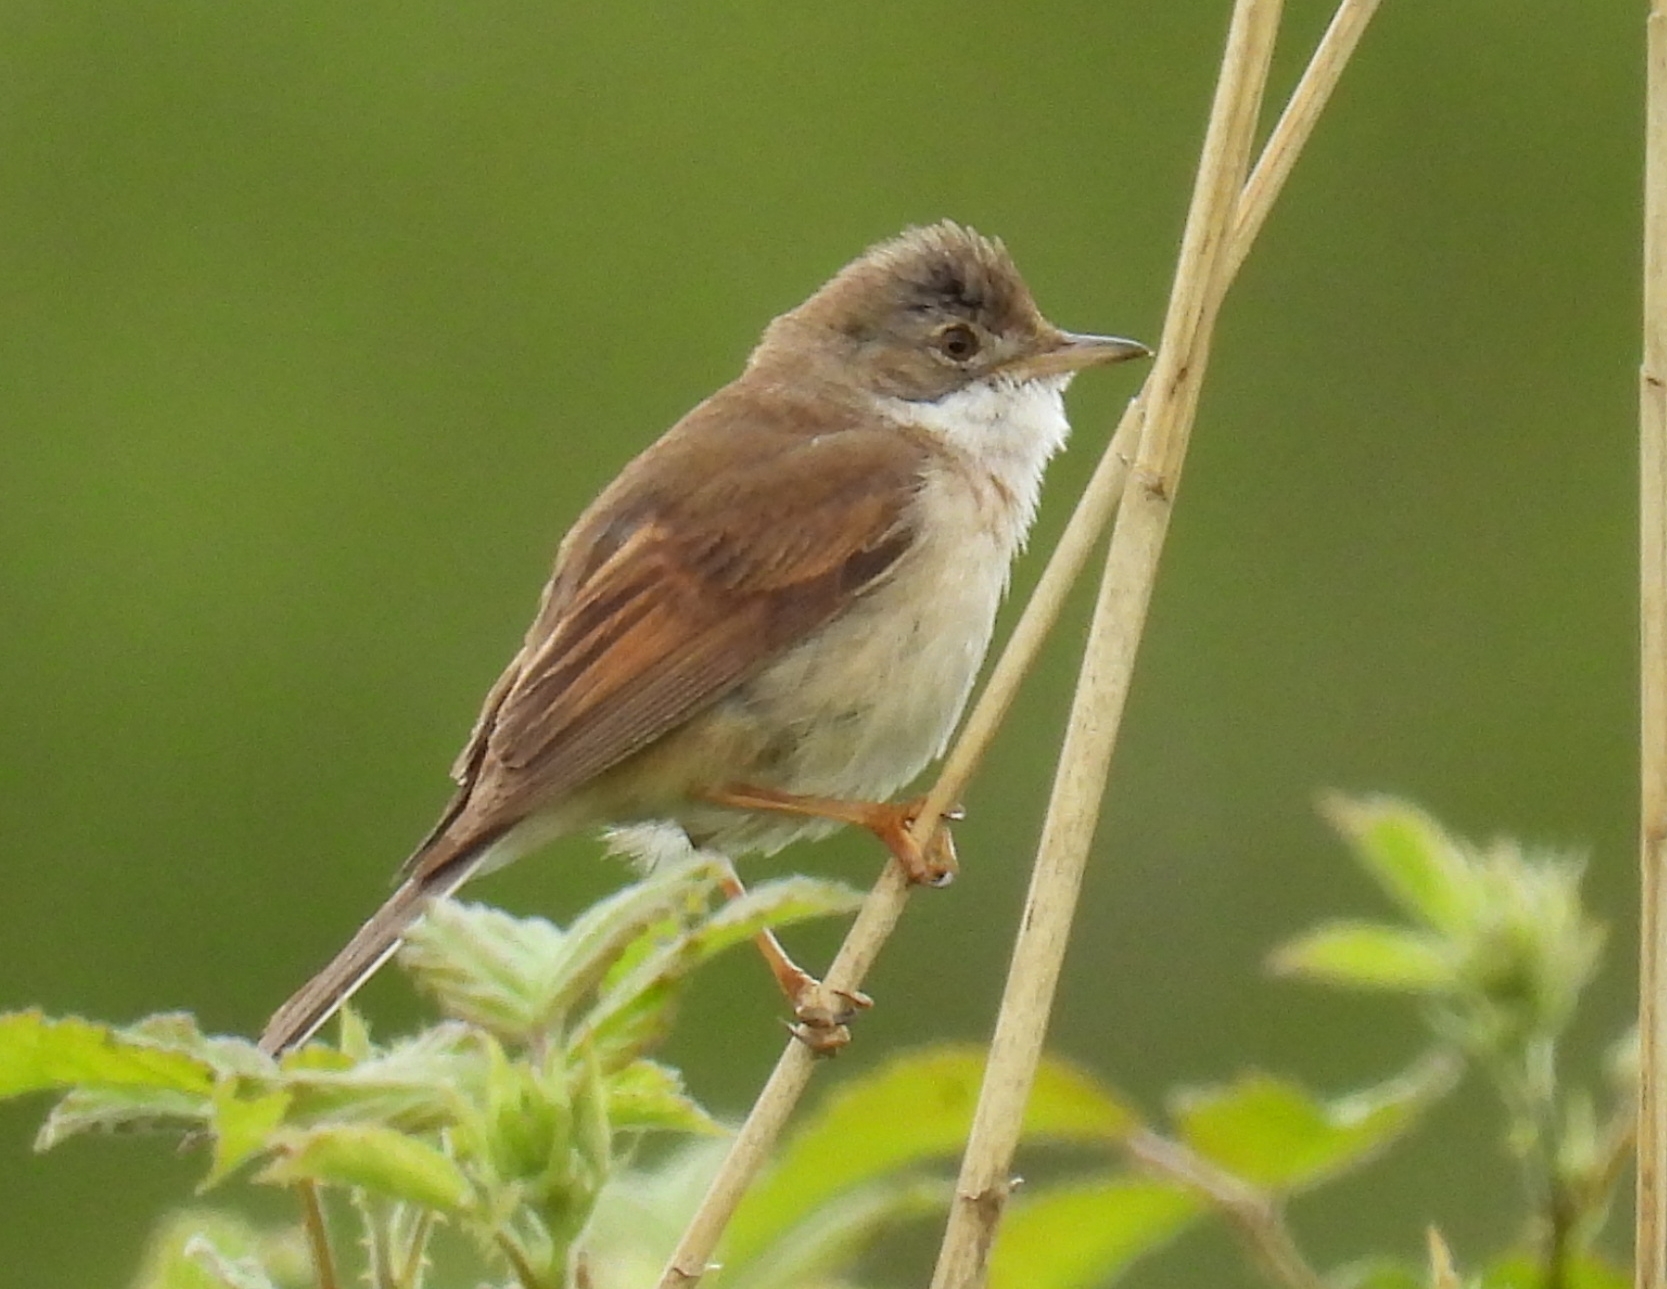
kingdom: Animalia
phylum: Chordata
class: Aves
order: Passeriformes
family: Sylviidae
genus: Sylvia
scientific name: Sylvia communis
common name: Common whitethroat
